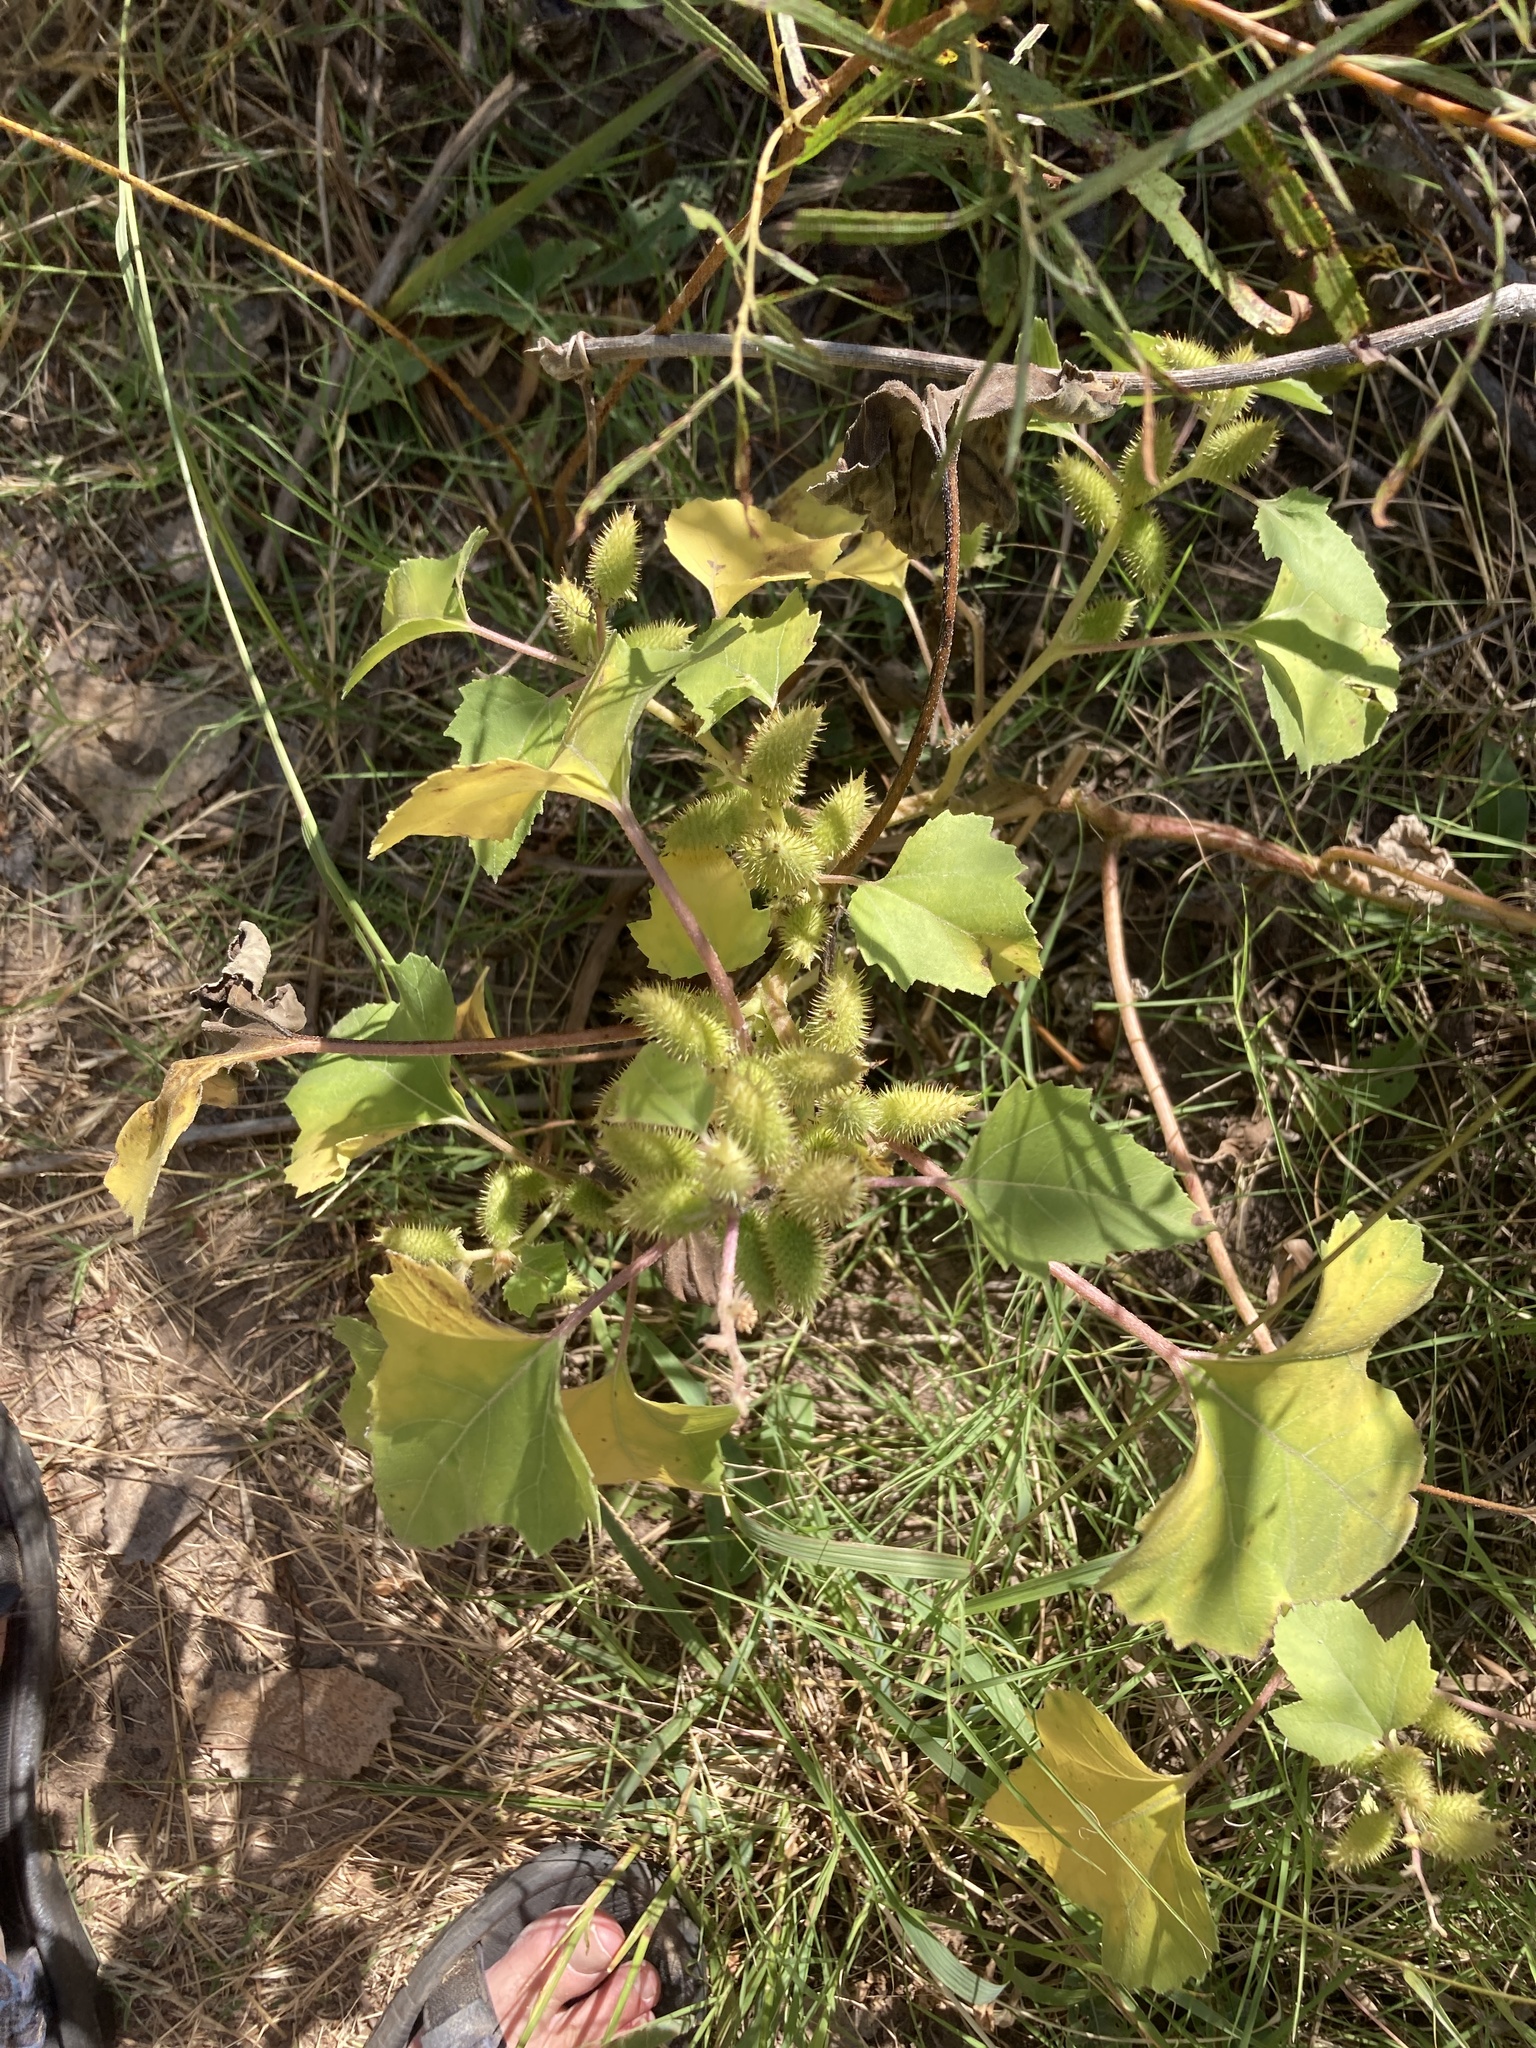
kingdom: Plantae
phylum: Tracheophyta
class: Magnoliopsida
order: Asterales
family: Asteraceae
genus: Xanthium
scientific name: Xanthium strumarium
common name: Rough cocklebur
